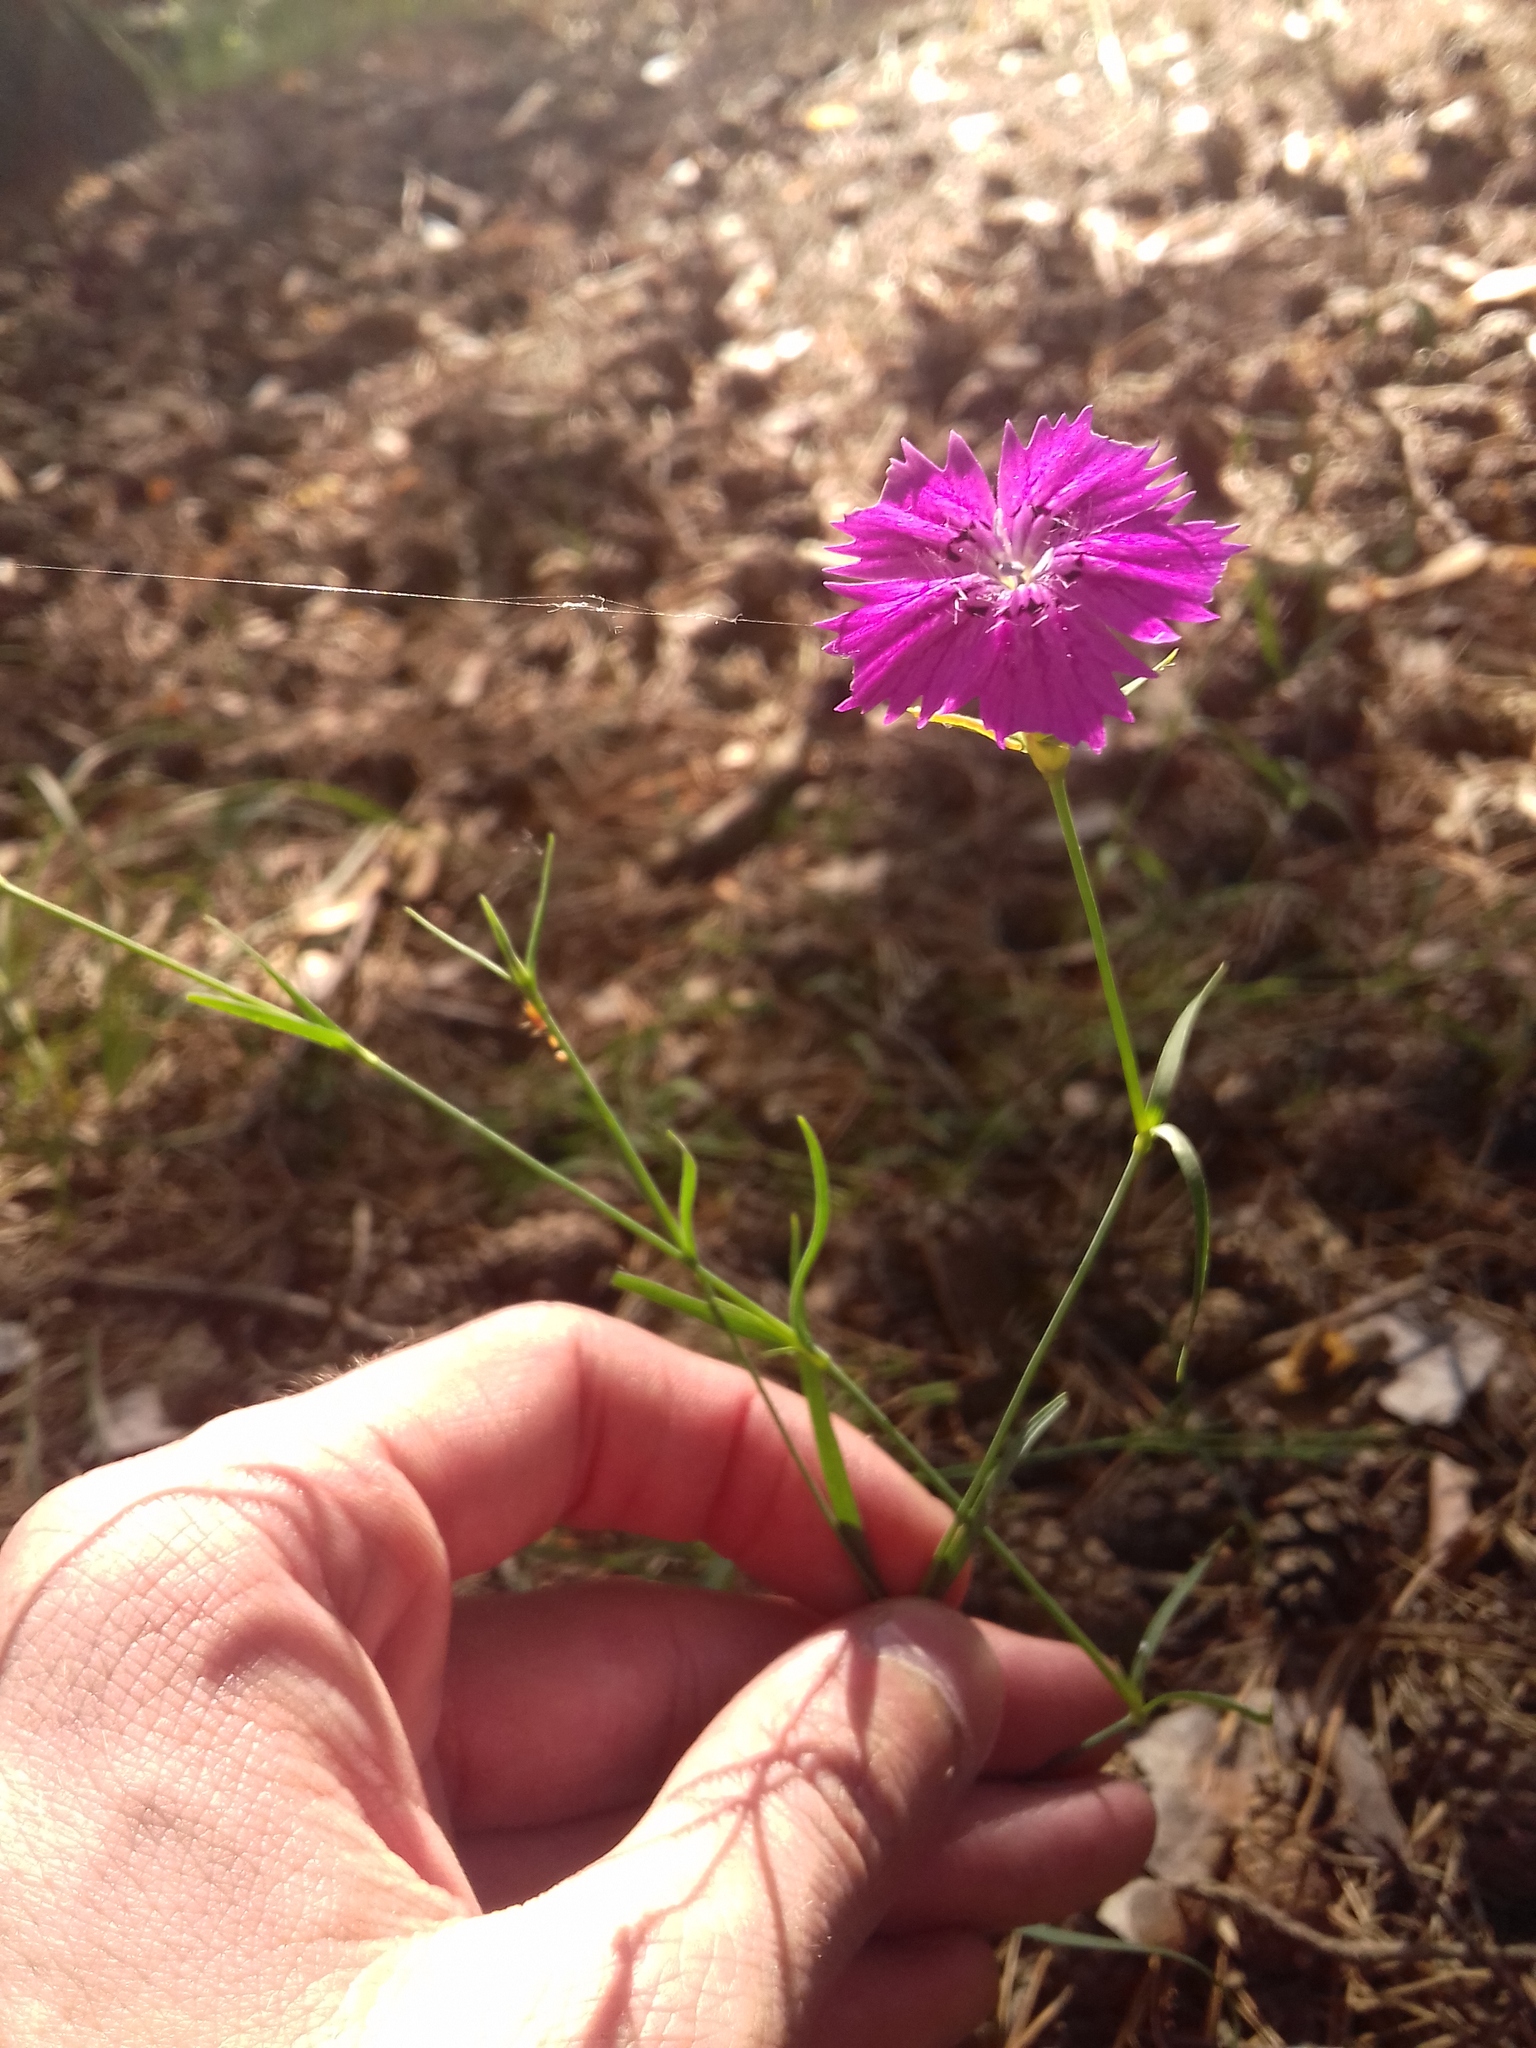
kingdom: Plantae
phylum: Tracheophyta
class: Magnoliopsida
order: Caryophyllales
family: Caryophyllaceae
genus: Dianthus
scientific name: Dianthus chinensis
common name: Rainbow pink
